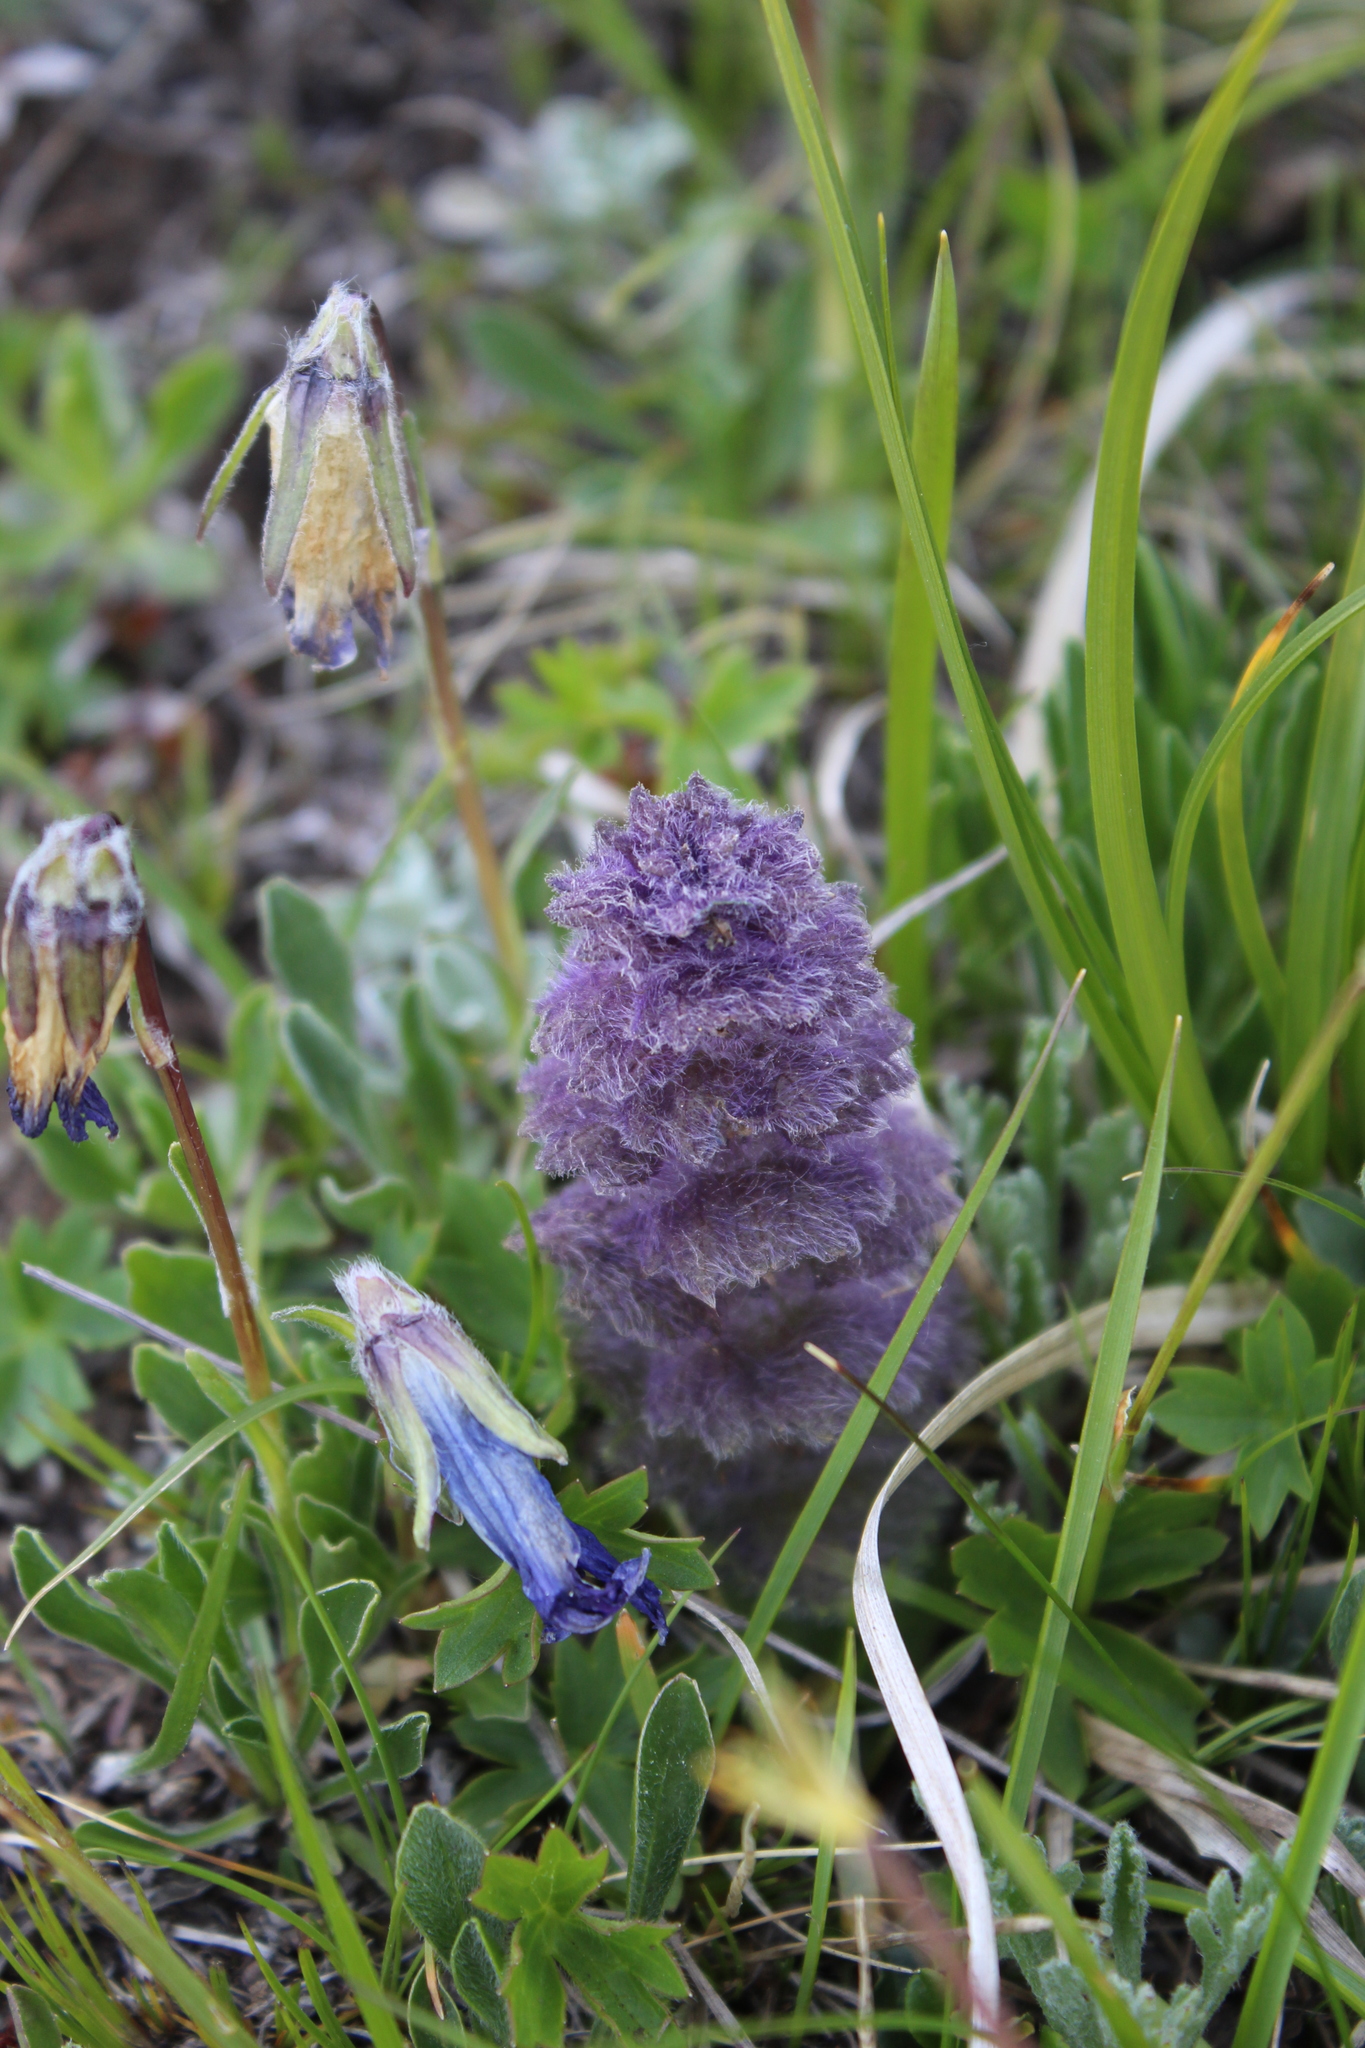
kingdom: Plantae
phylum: Tracheophyta
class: Magnoliopsida
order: Lamiales
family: Lamiaceae
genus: Ajuga
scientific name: Ajuga orientalis
